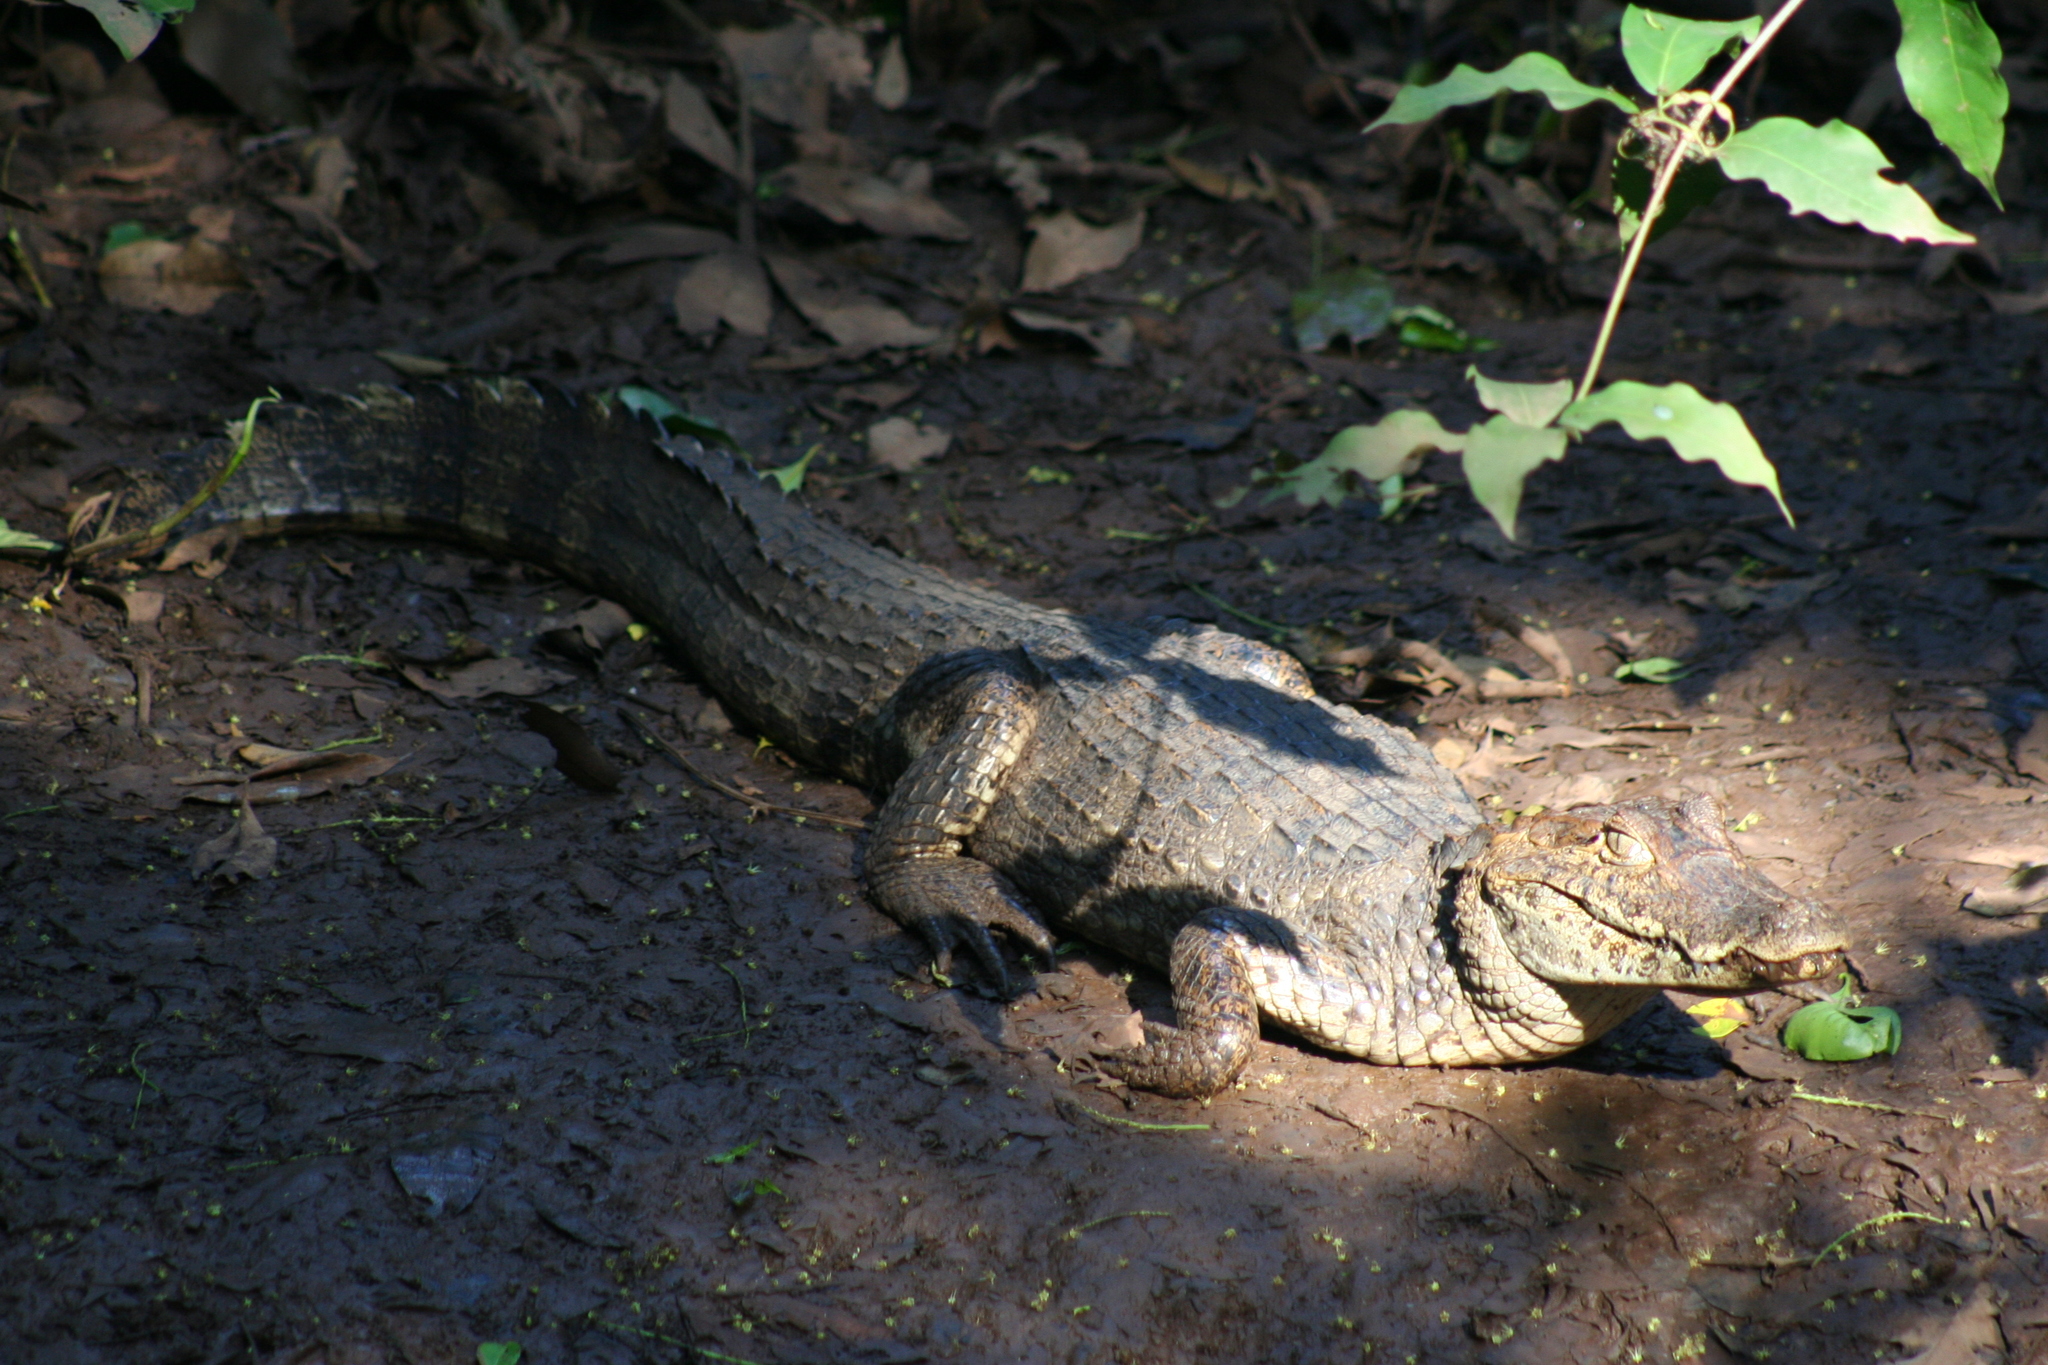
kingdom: Animalia
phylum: Chordata
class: Crocodylia
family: Alligatoridae
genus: Caiman
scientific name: Caiman crocodilus
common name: Common caiman
